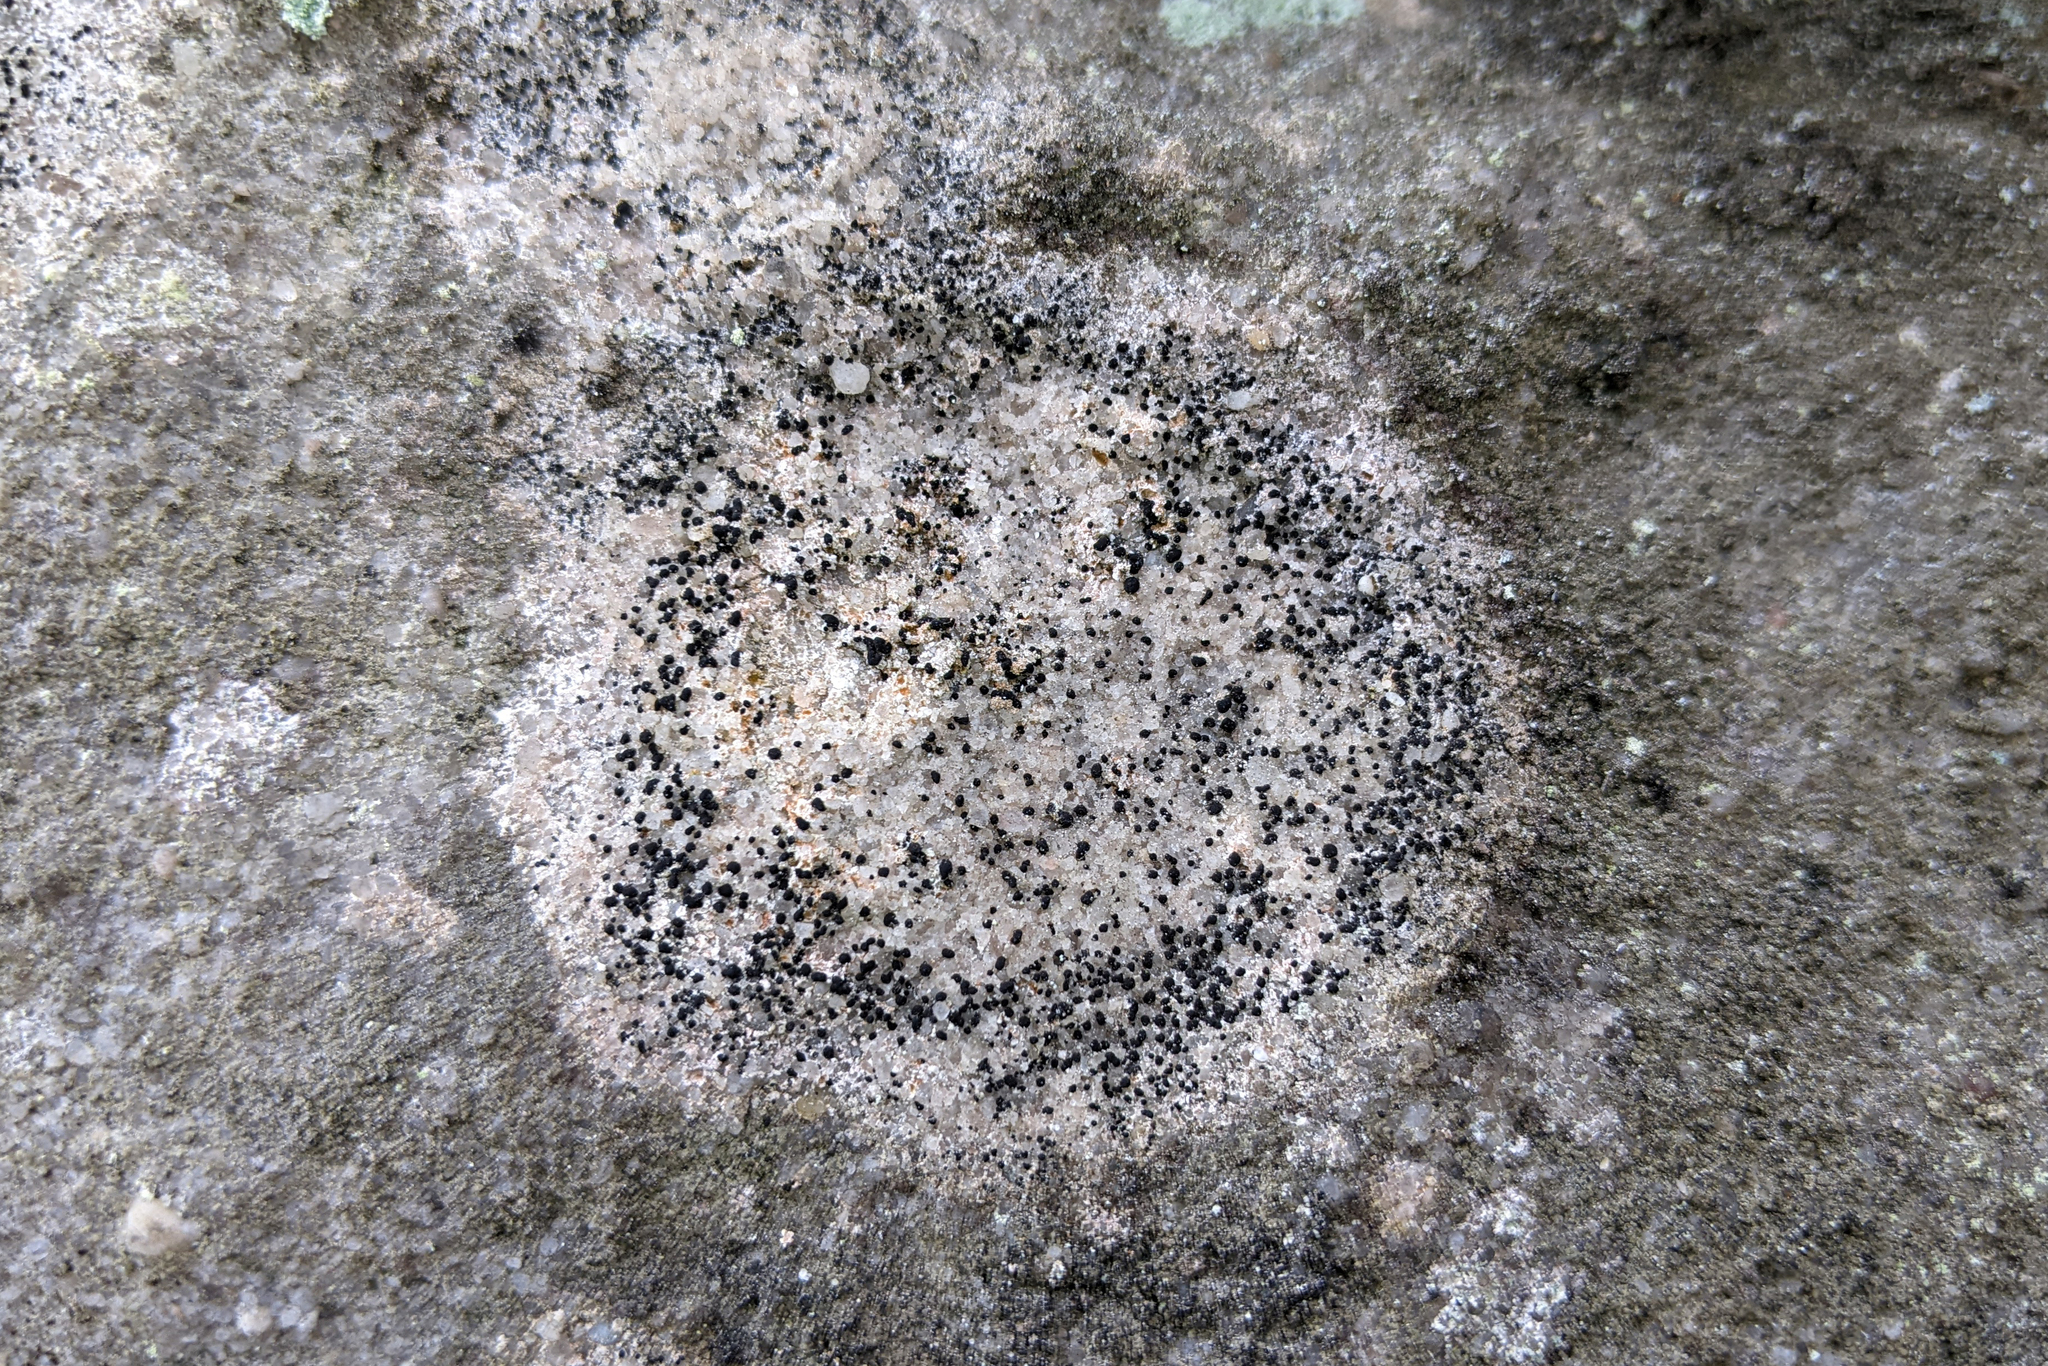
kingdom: Fungi
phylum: Ascomycota
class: Lecanoromycetes
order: Lecideales
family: Lecideaceae
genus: Porpidia
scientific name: Porpidia crustulata
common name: Concentric boulder lichen
